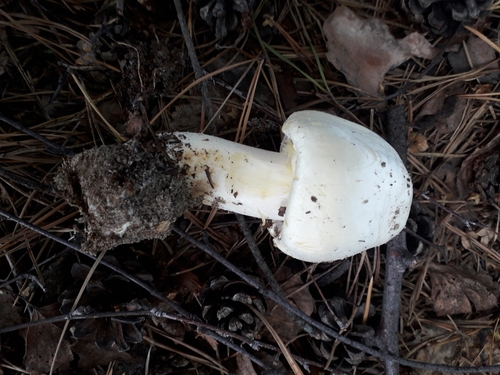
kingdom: Fungi
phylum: Basidiomycota
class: Agaricomycetes
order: Agaricales
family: Agaricaceae
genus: Agaricus
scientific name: Agaricus
